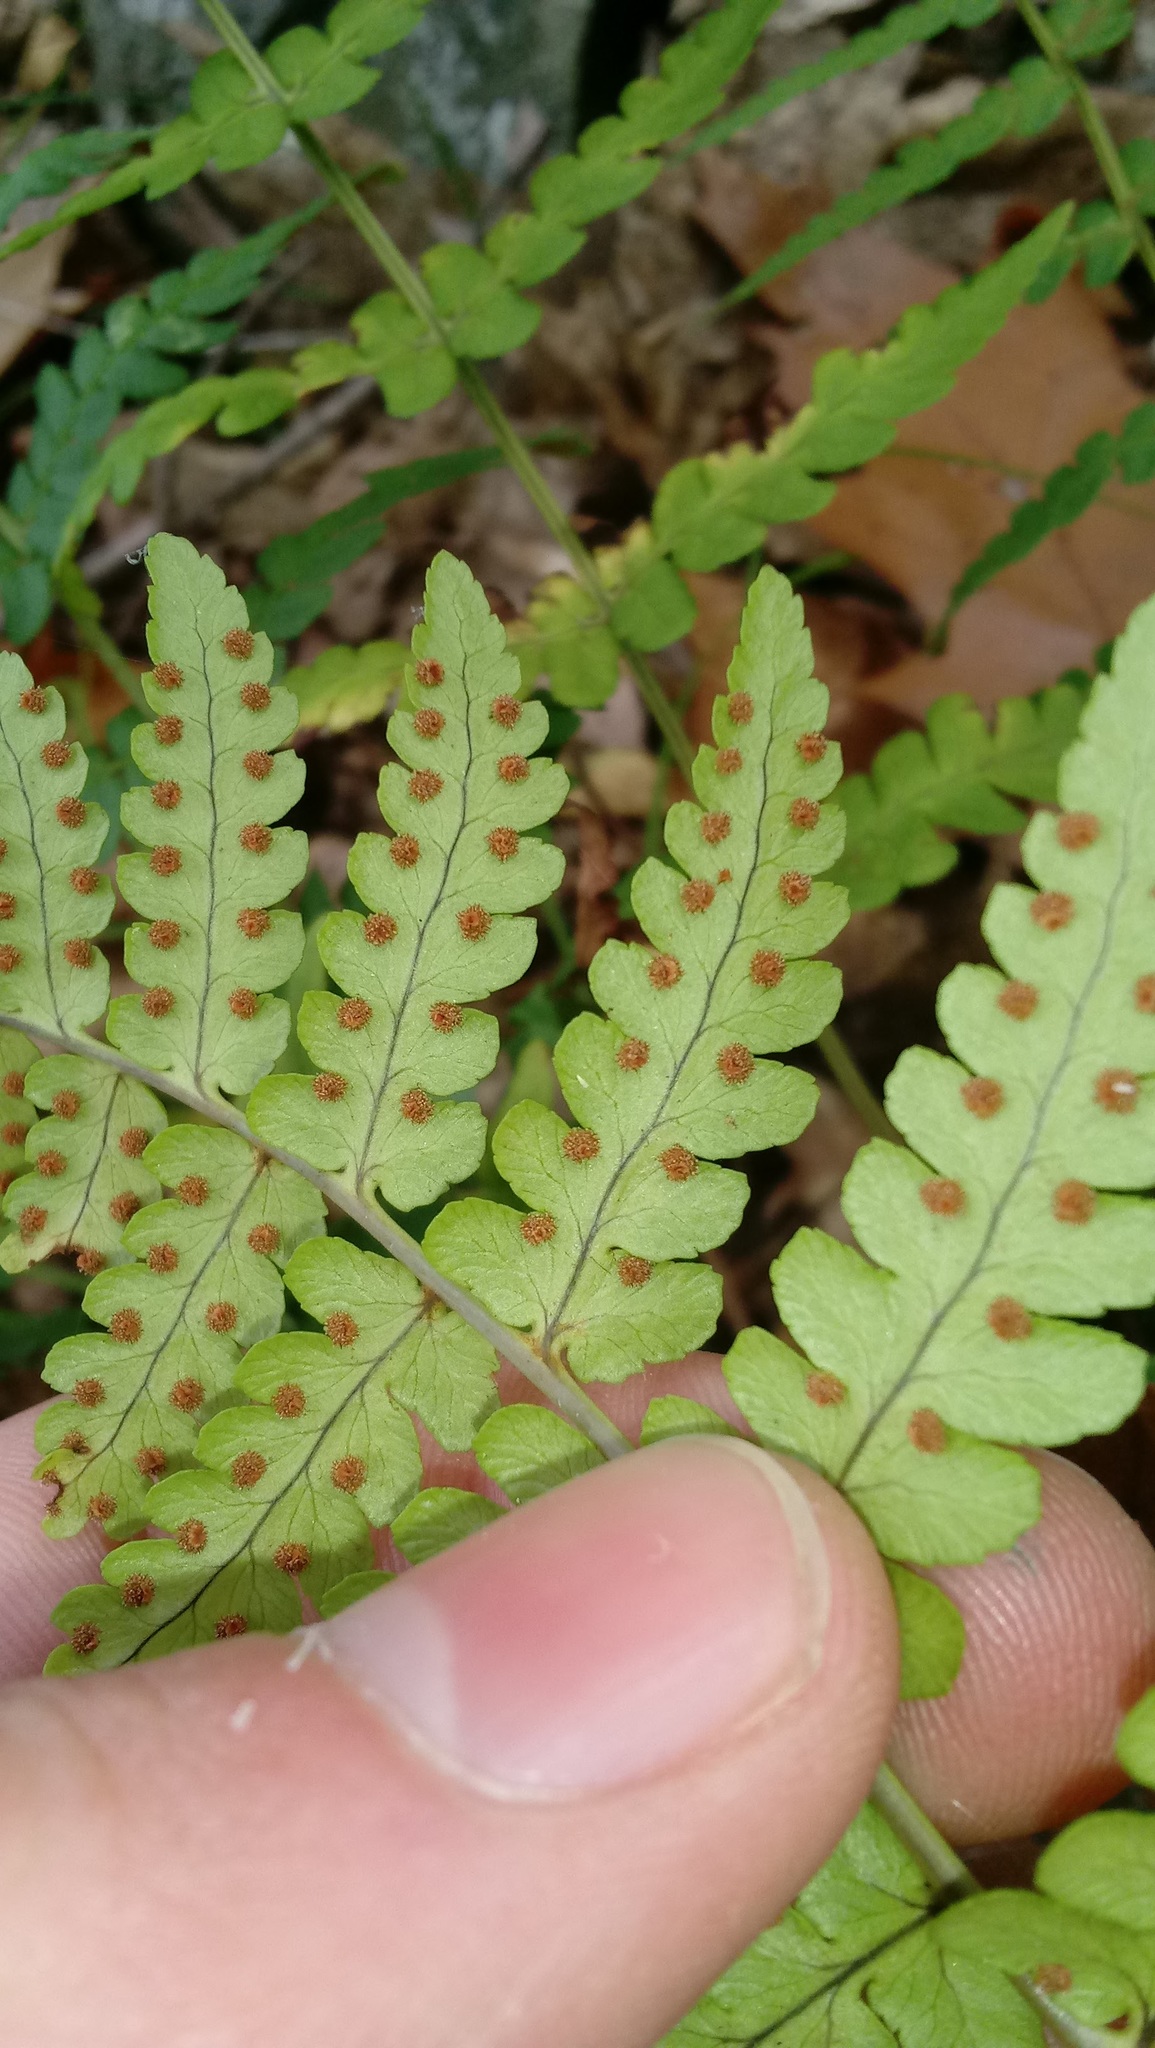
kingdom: Plantae
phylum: Tracheophyta
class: Polypodiopsida
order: Polypodiales
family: Dryopteridaceae
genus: Dryopteris
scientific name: Dryopteris marginalis
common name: Marginal wood fern
